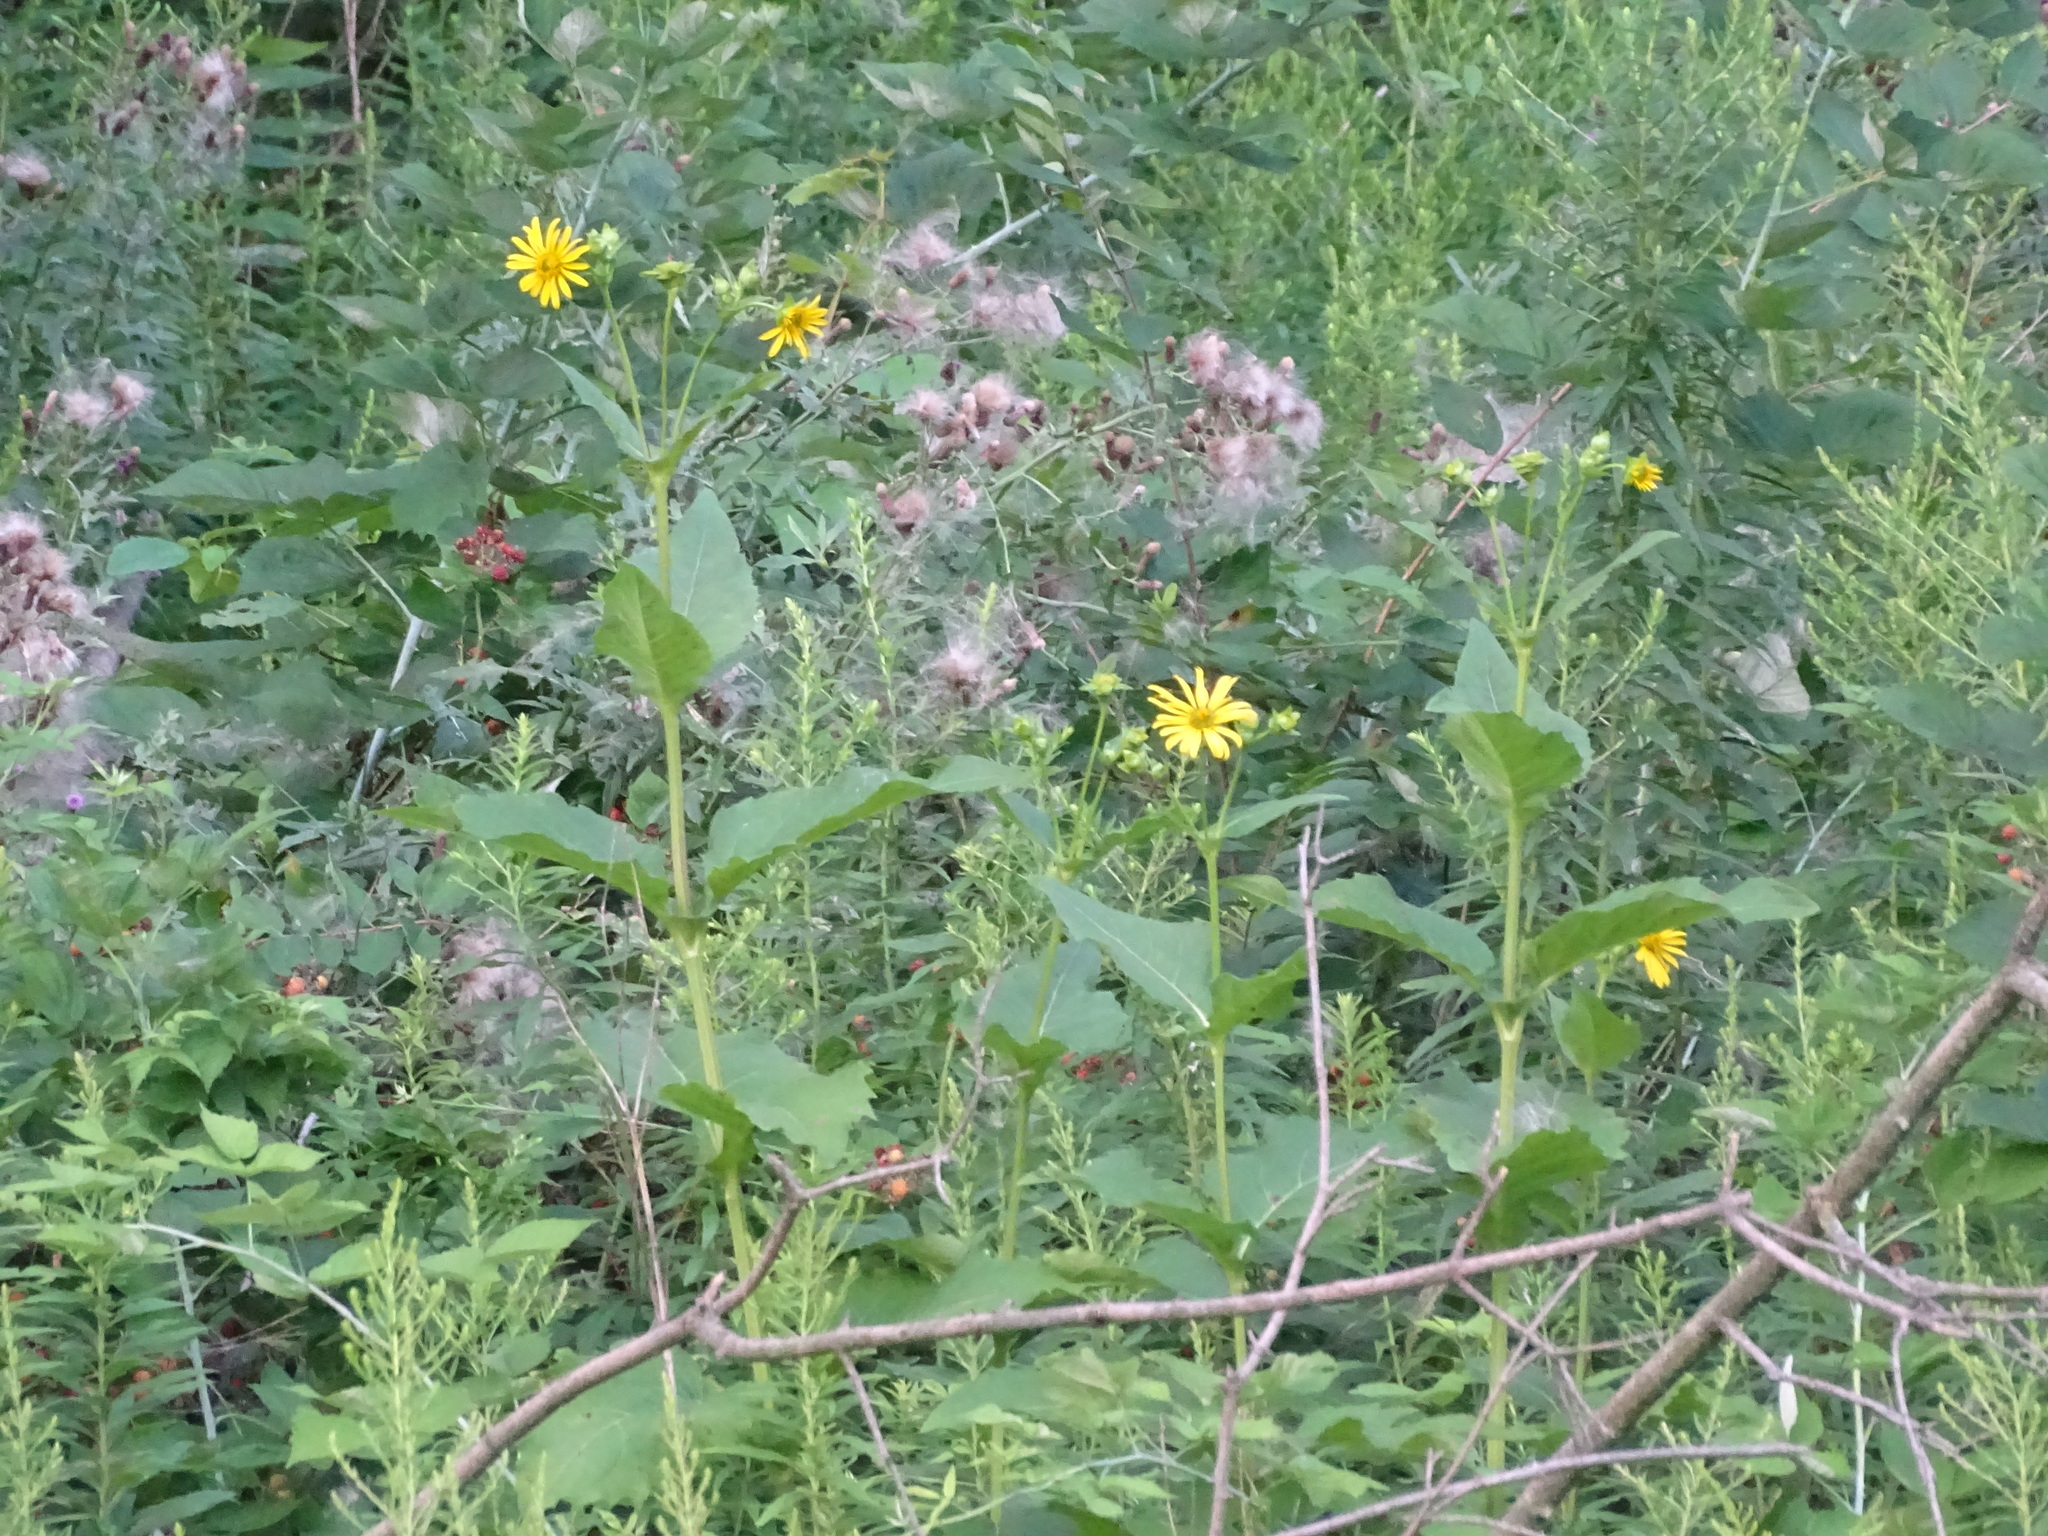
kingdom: Plantae
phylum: Tracheophyta
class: Magnoliopsida
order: Asterales
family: Asteraceae
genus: Silphium
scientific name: Silphium perfoliatum
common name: Cup-plant
